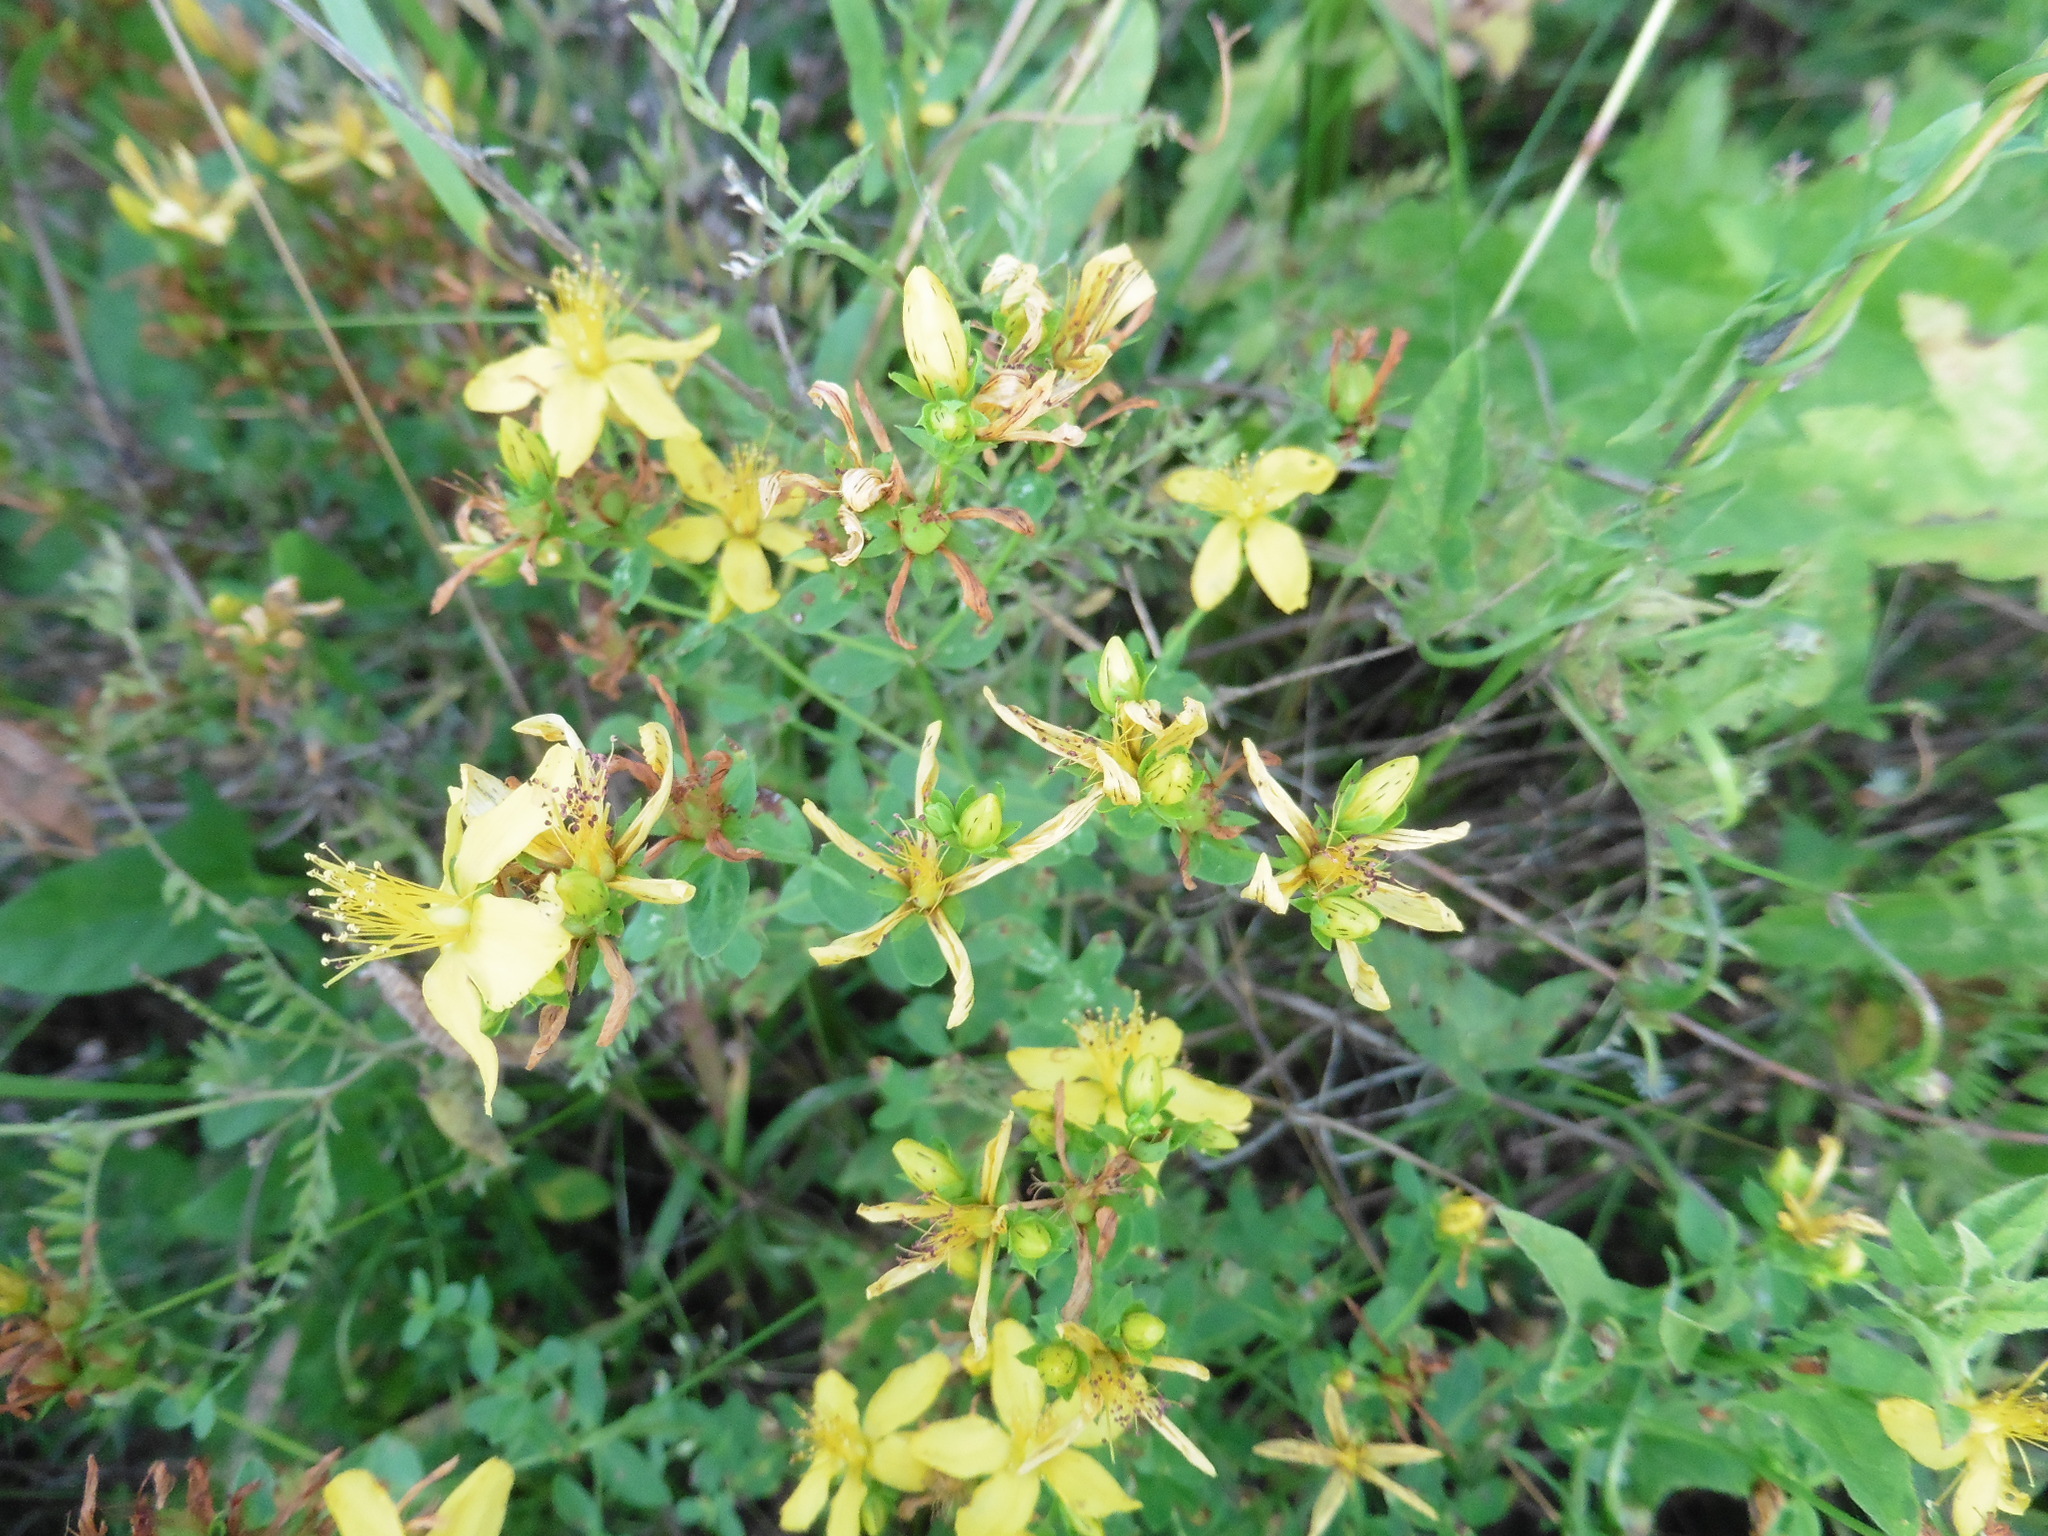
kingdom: Plantae
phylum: Tracheophyta
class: Magnoliopsida
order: Malpighiales
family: Hypericaceae
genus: Hypericum
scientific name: Hypericum perforatum
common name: Common st. johnswort
